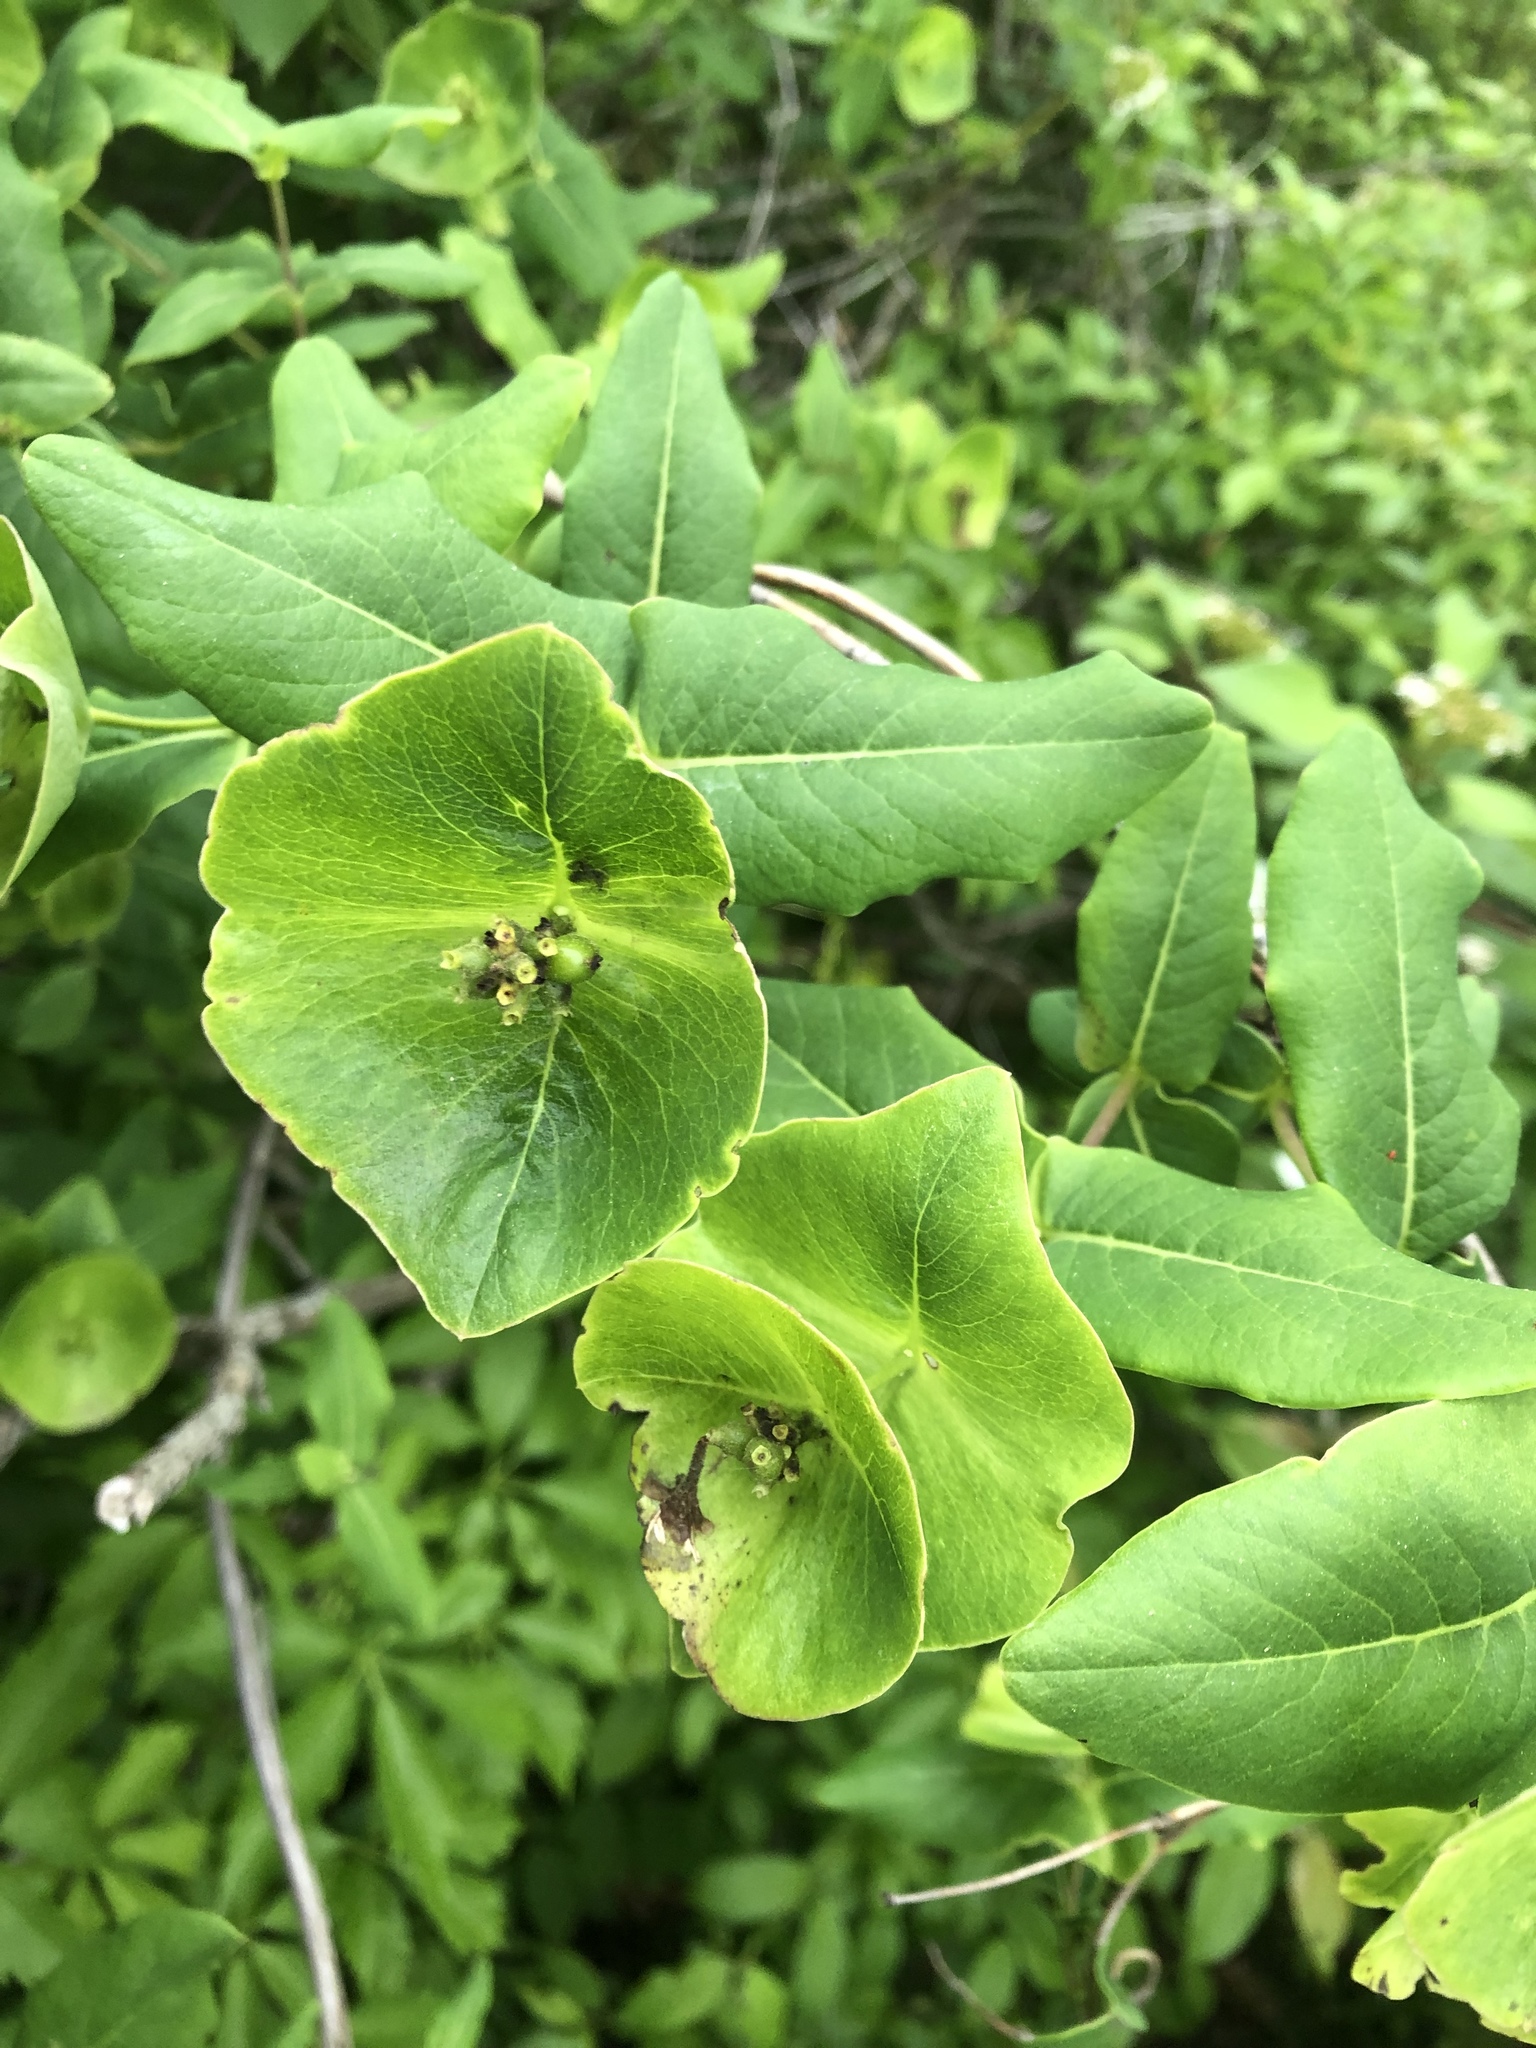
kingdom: Plantae
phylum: Tracheophyta
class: Magnoliopsida
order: Dipsacales
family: Caprifoliaceae
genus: Lonicera
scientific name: Lonicera dioica
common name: Limber honeysuckle
